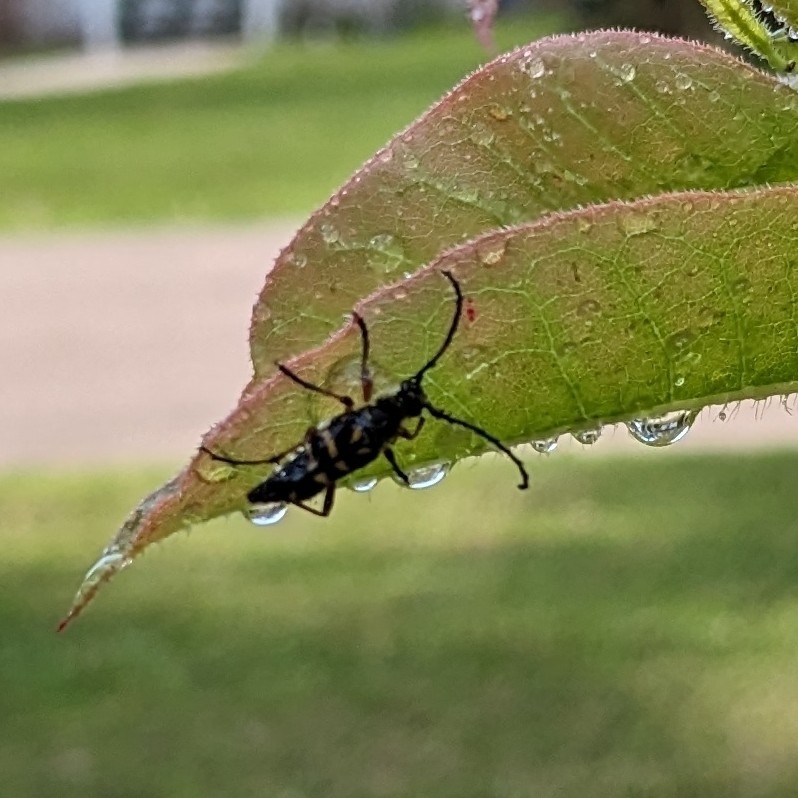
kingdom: Animalia
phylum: Arthropoda
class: Insecta
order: Coleoptera
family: Cerambycidae
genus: Typocerus
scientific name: Typocerus zebra
